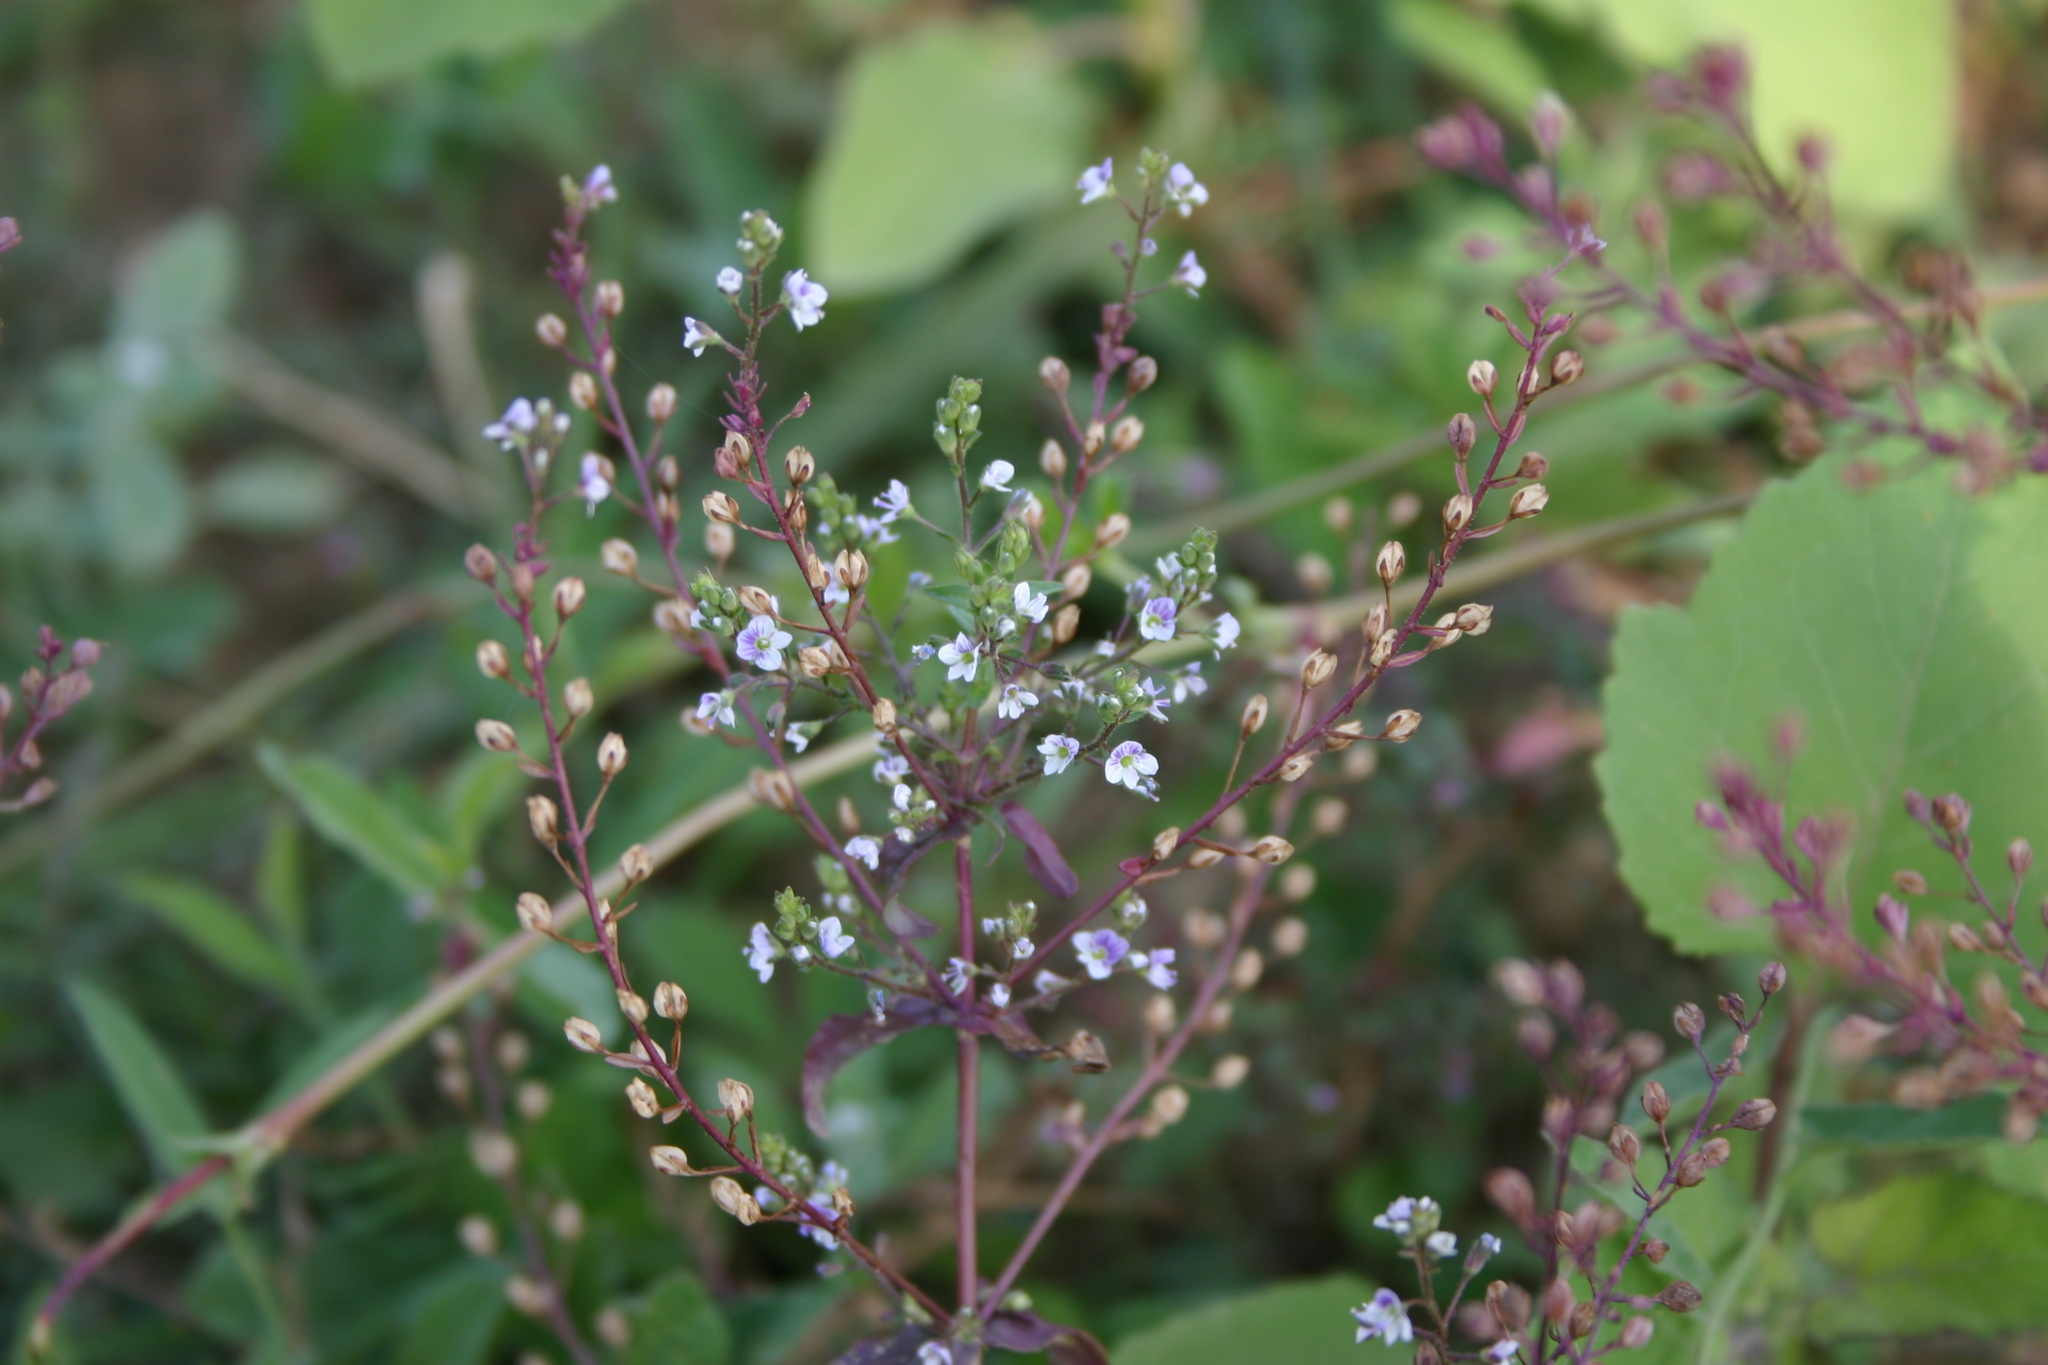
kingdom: Plantae
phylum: Tracheophyta
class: Magnoliopsida
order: Lamiales
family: Plantaginaceae
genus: Veronica
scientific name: Veronica anagalloides
